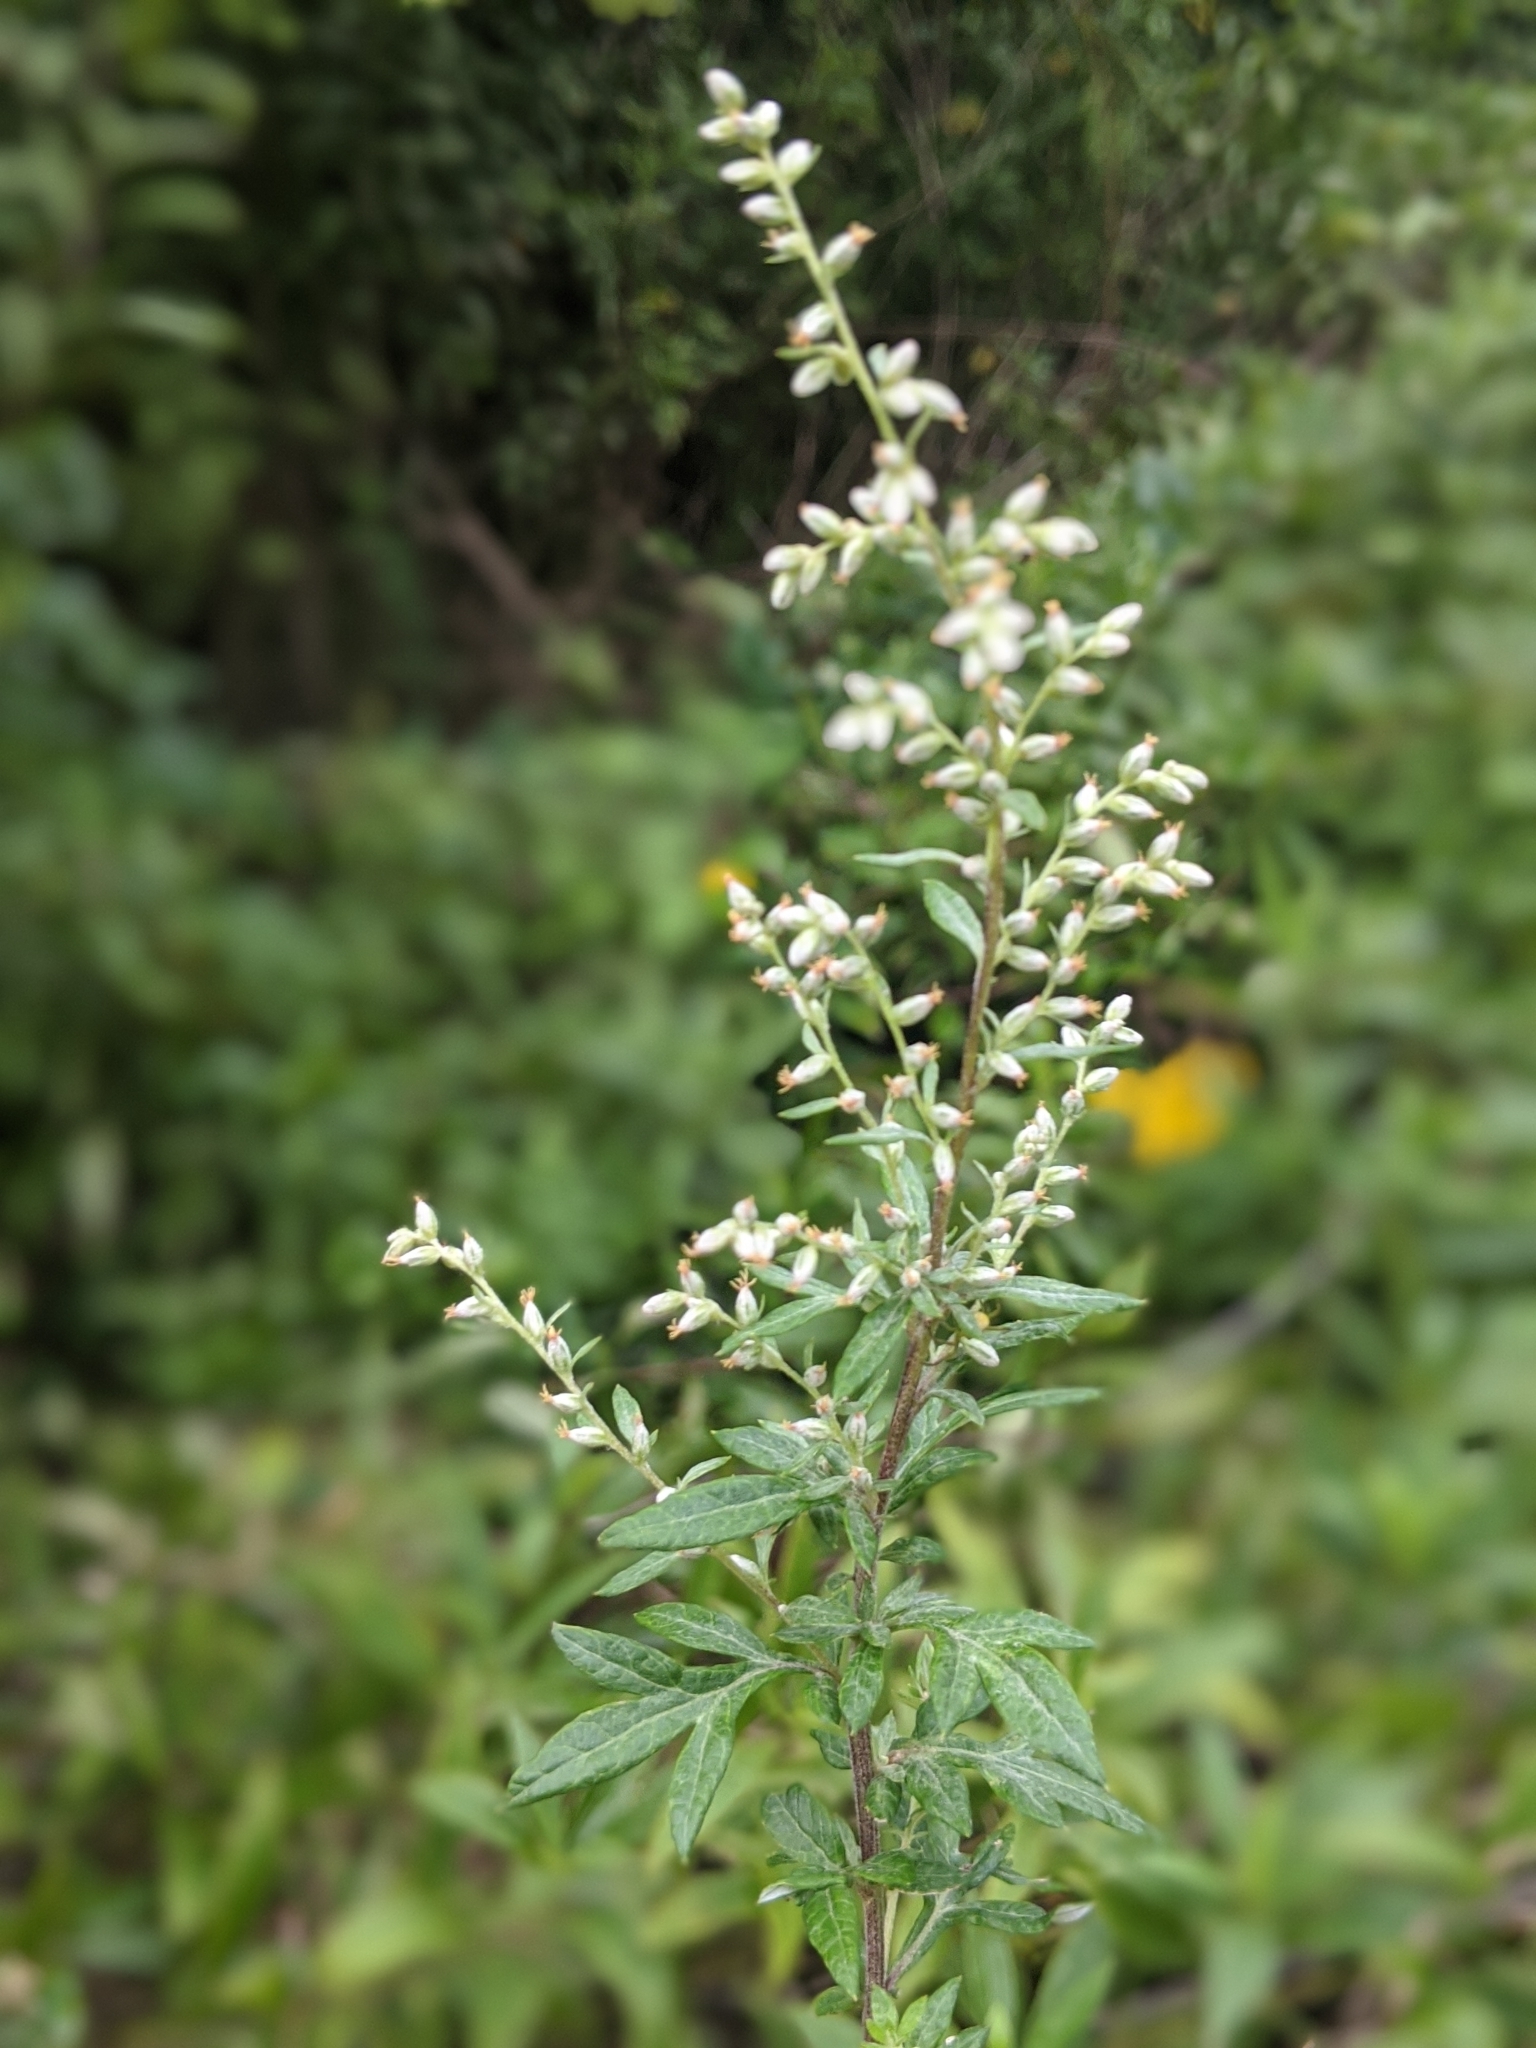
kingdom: Plantae
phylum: Tracheophyta
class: Magnoliopsida
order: Asterales
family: Asteraceae
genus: Artemisia
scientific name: Artemisia vulgaris
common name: Mugwort
